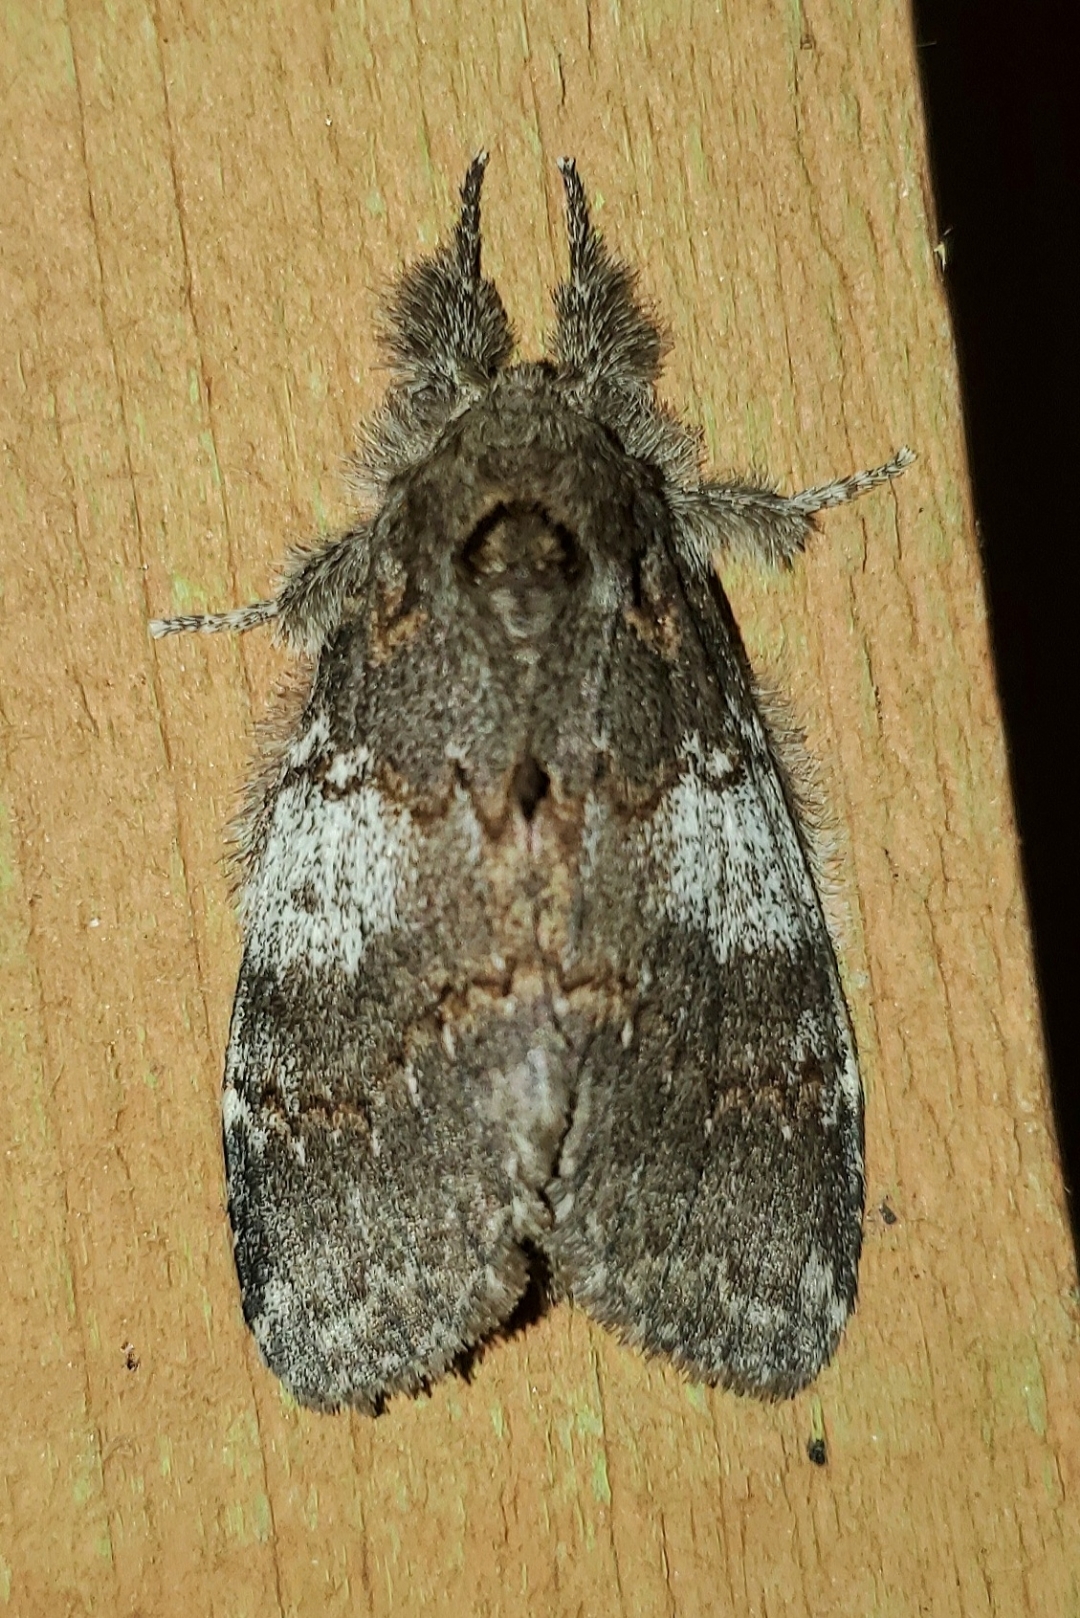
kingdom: Animalia
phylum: Arthropoda
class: Insecta
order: Lepidoptera
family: Notodontidae
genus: Peridea
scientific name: Peridea angulosa
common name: Angulose prominent
